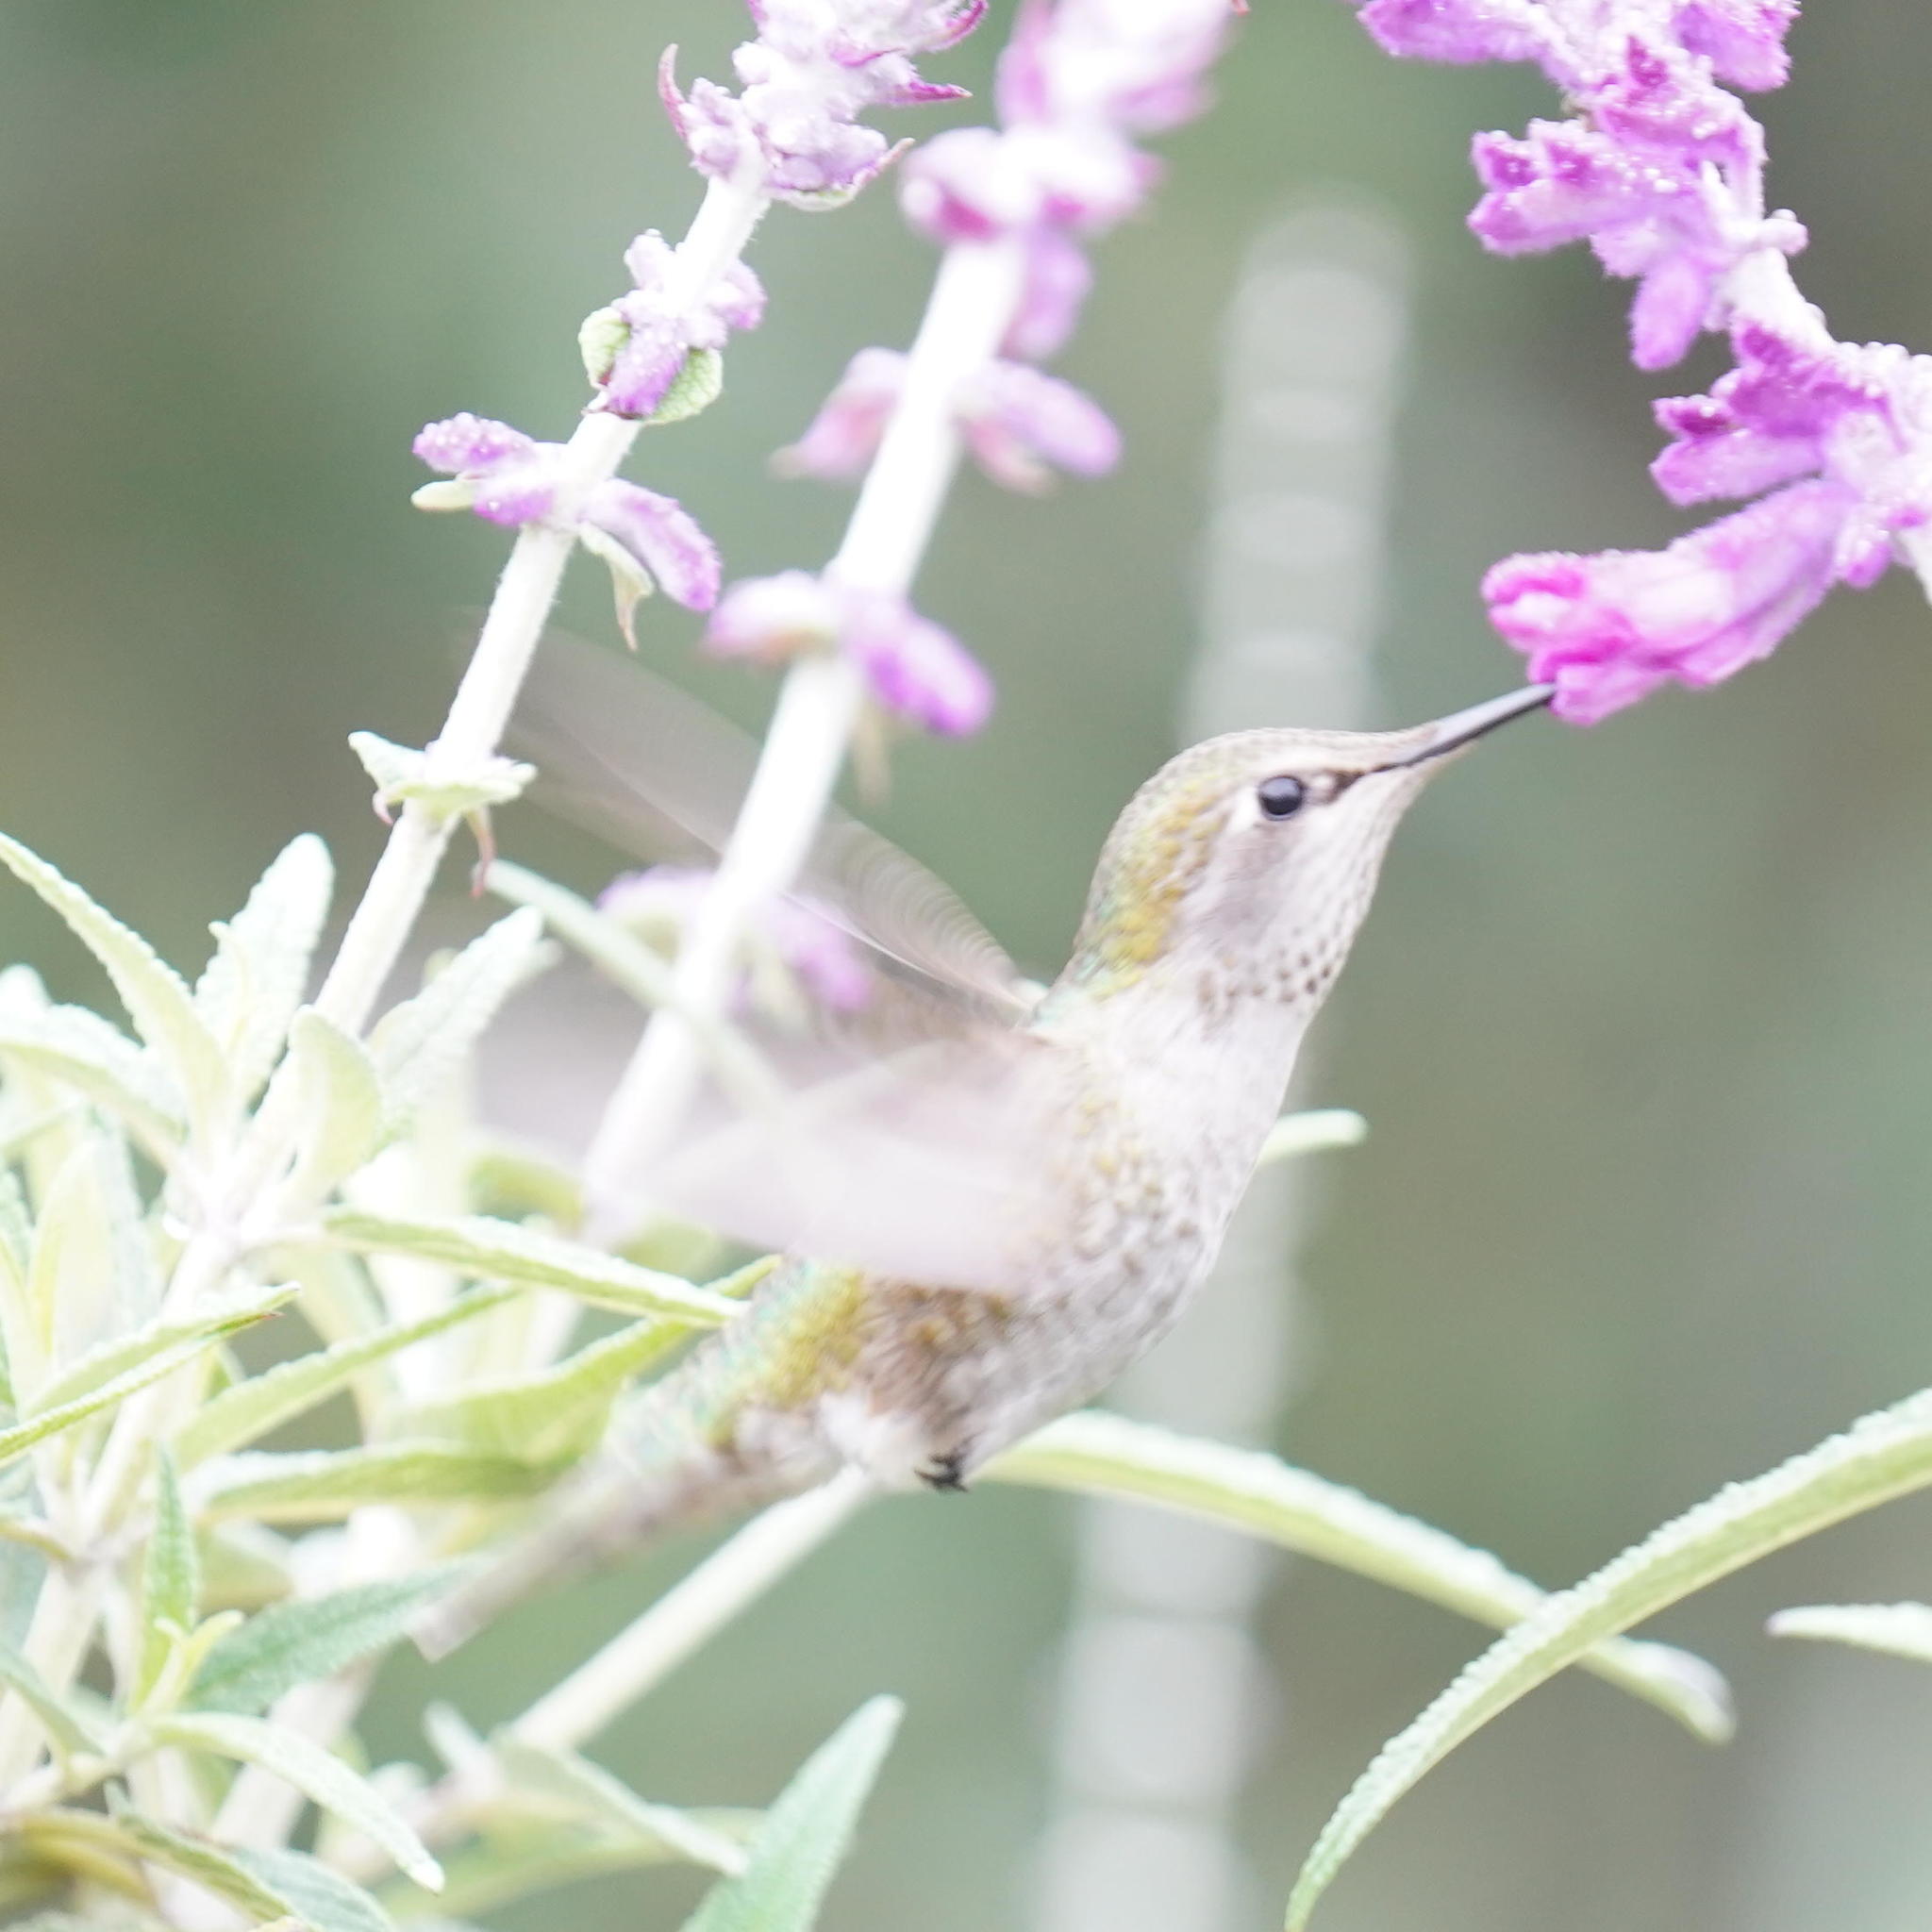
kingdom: Animalia
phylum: Chordata
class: Aves
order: Apodiformes
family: Trochilidae
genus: Calypte
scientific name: Calypte anna
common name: Anna's hummingbird
